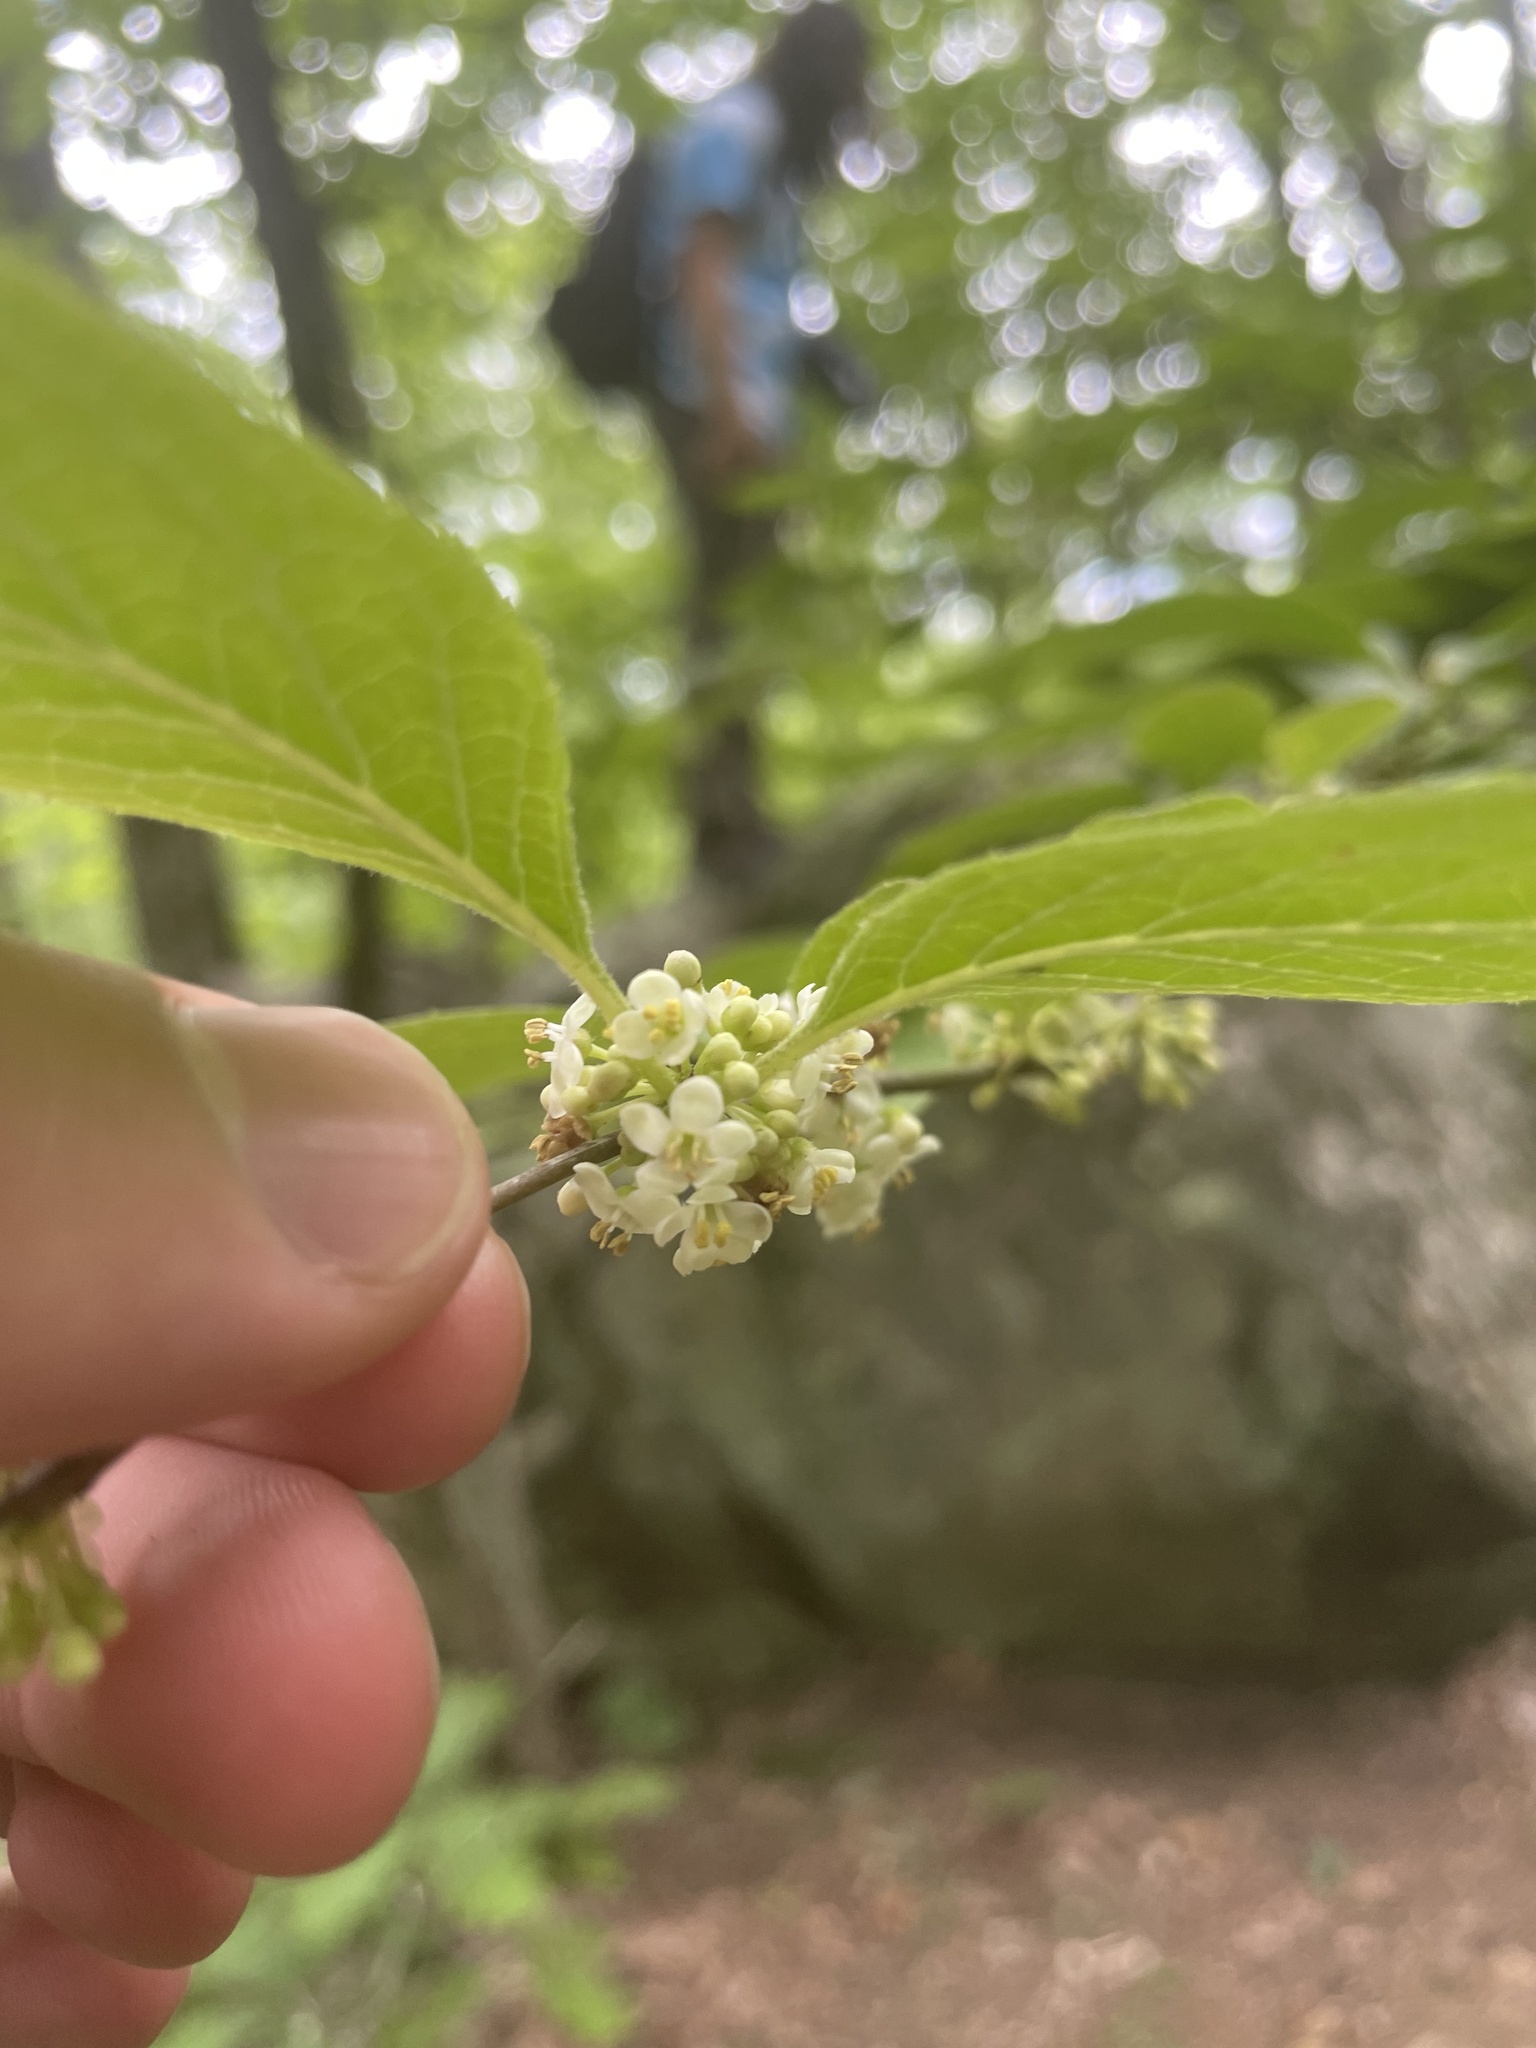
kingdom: Plantae
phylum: Tracheophyta
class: Magnoliopsida
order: Aquifoliales
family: Aquifoliaceae
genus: Ilex
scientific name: Ilex montana
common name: Mountain winterberry
